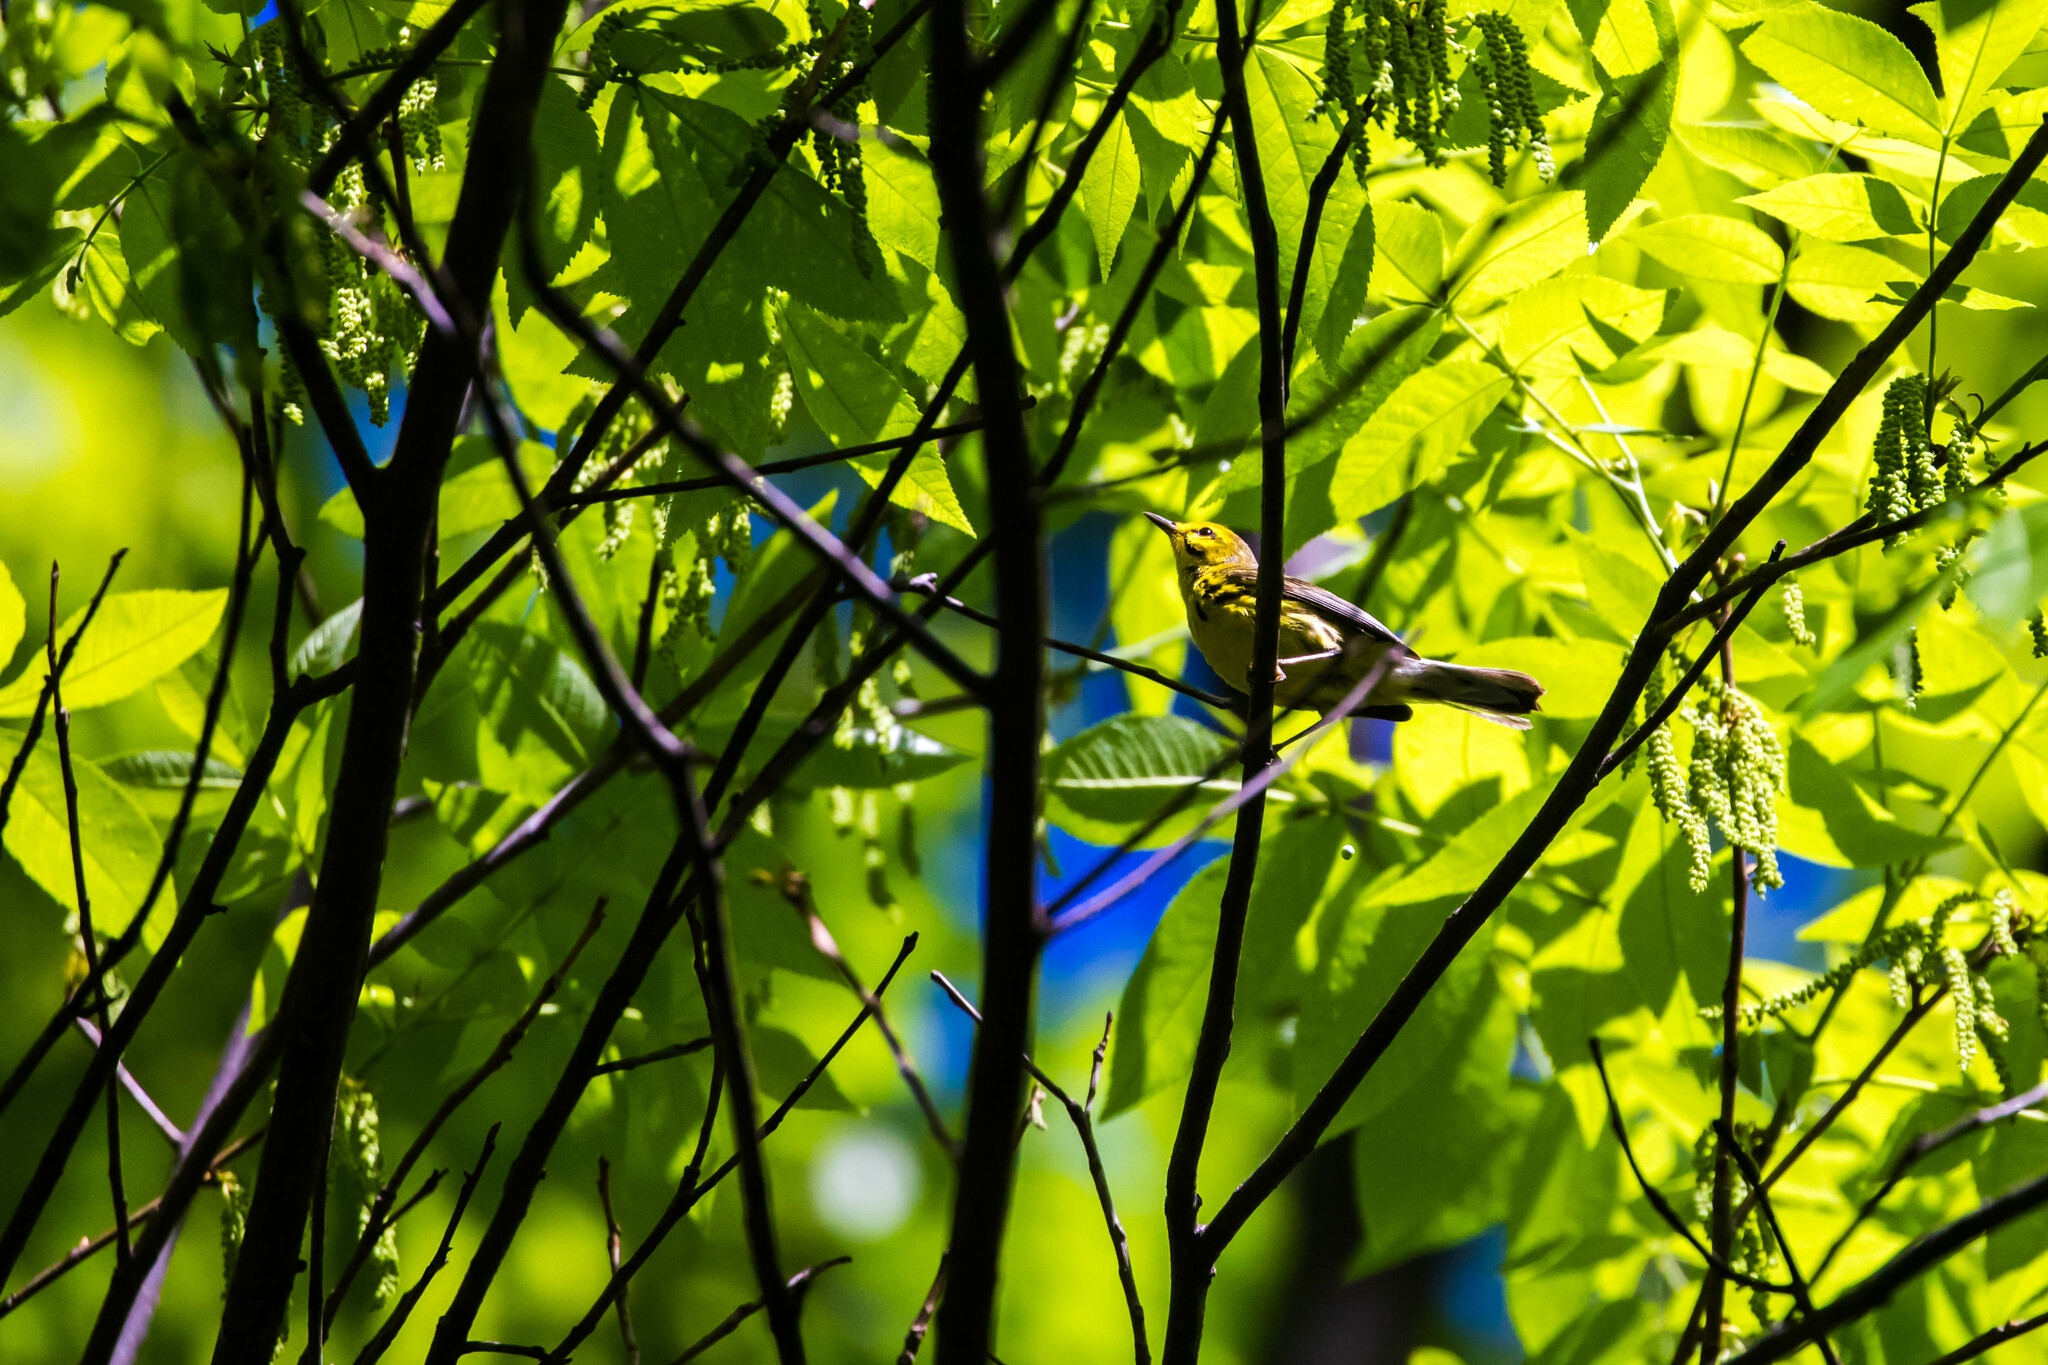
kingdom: Animalia
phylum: Chordata
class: Aves
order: Passeriformes
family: Parulidae
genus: Setophaga
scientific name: Setophaga discolor
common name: Prairie warbler
